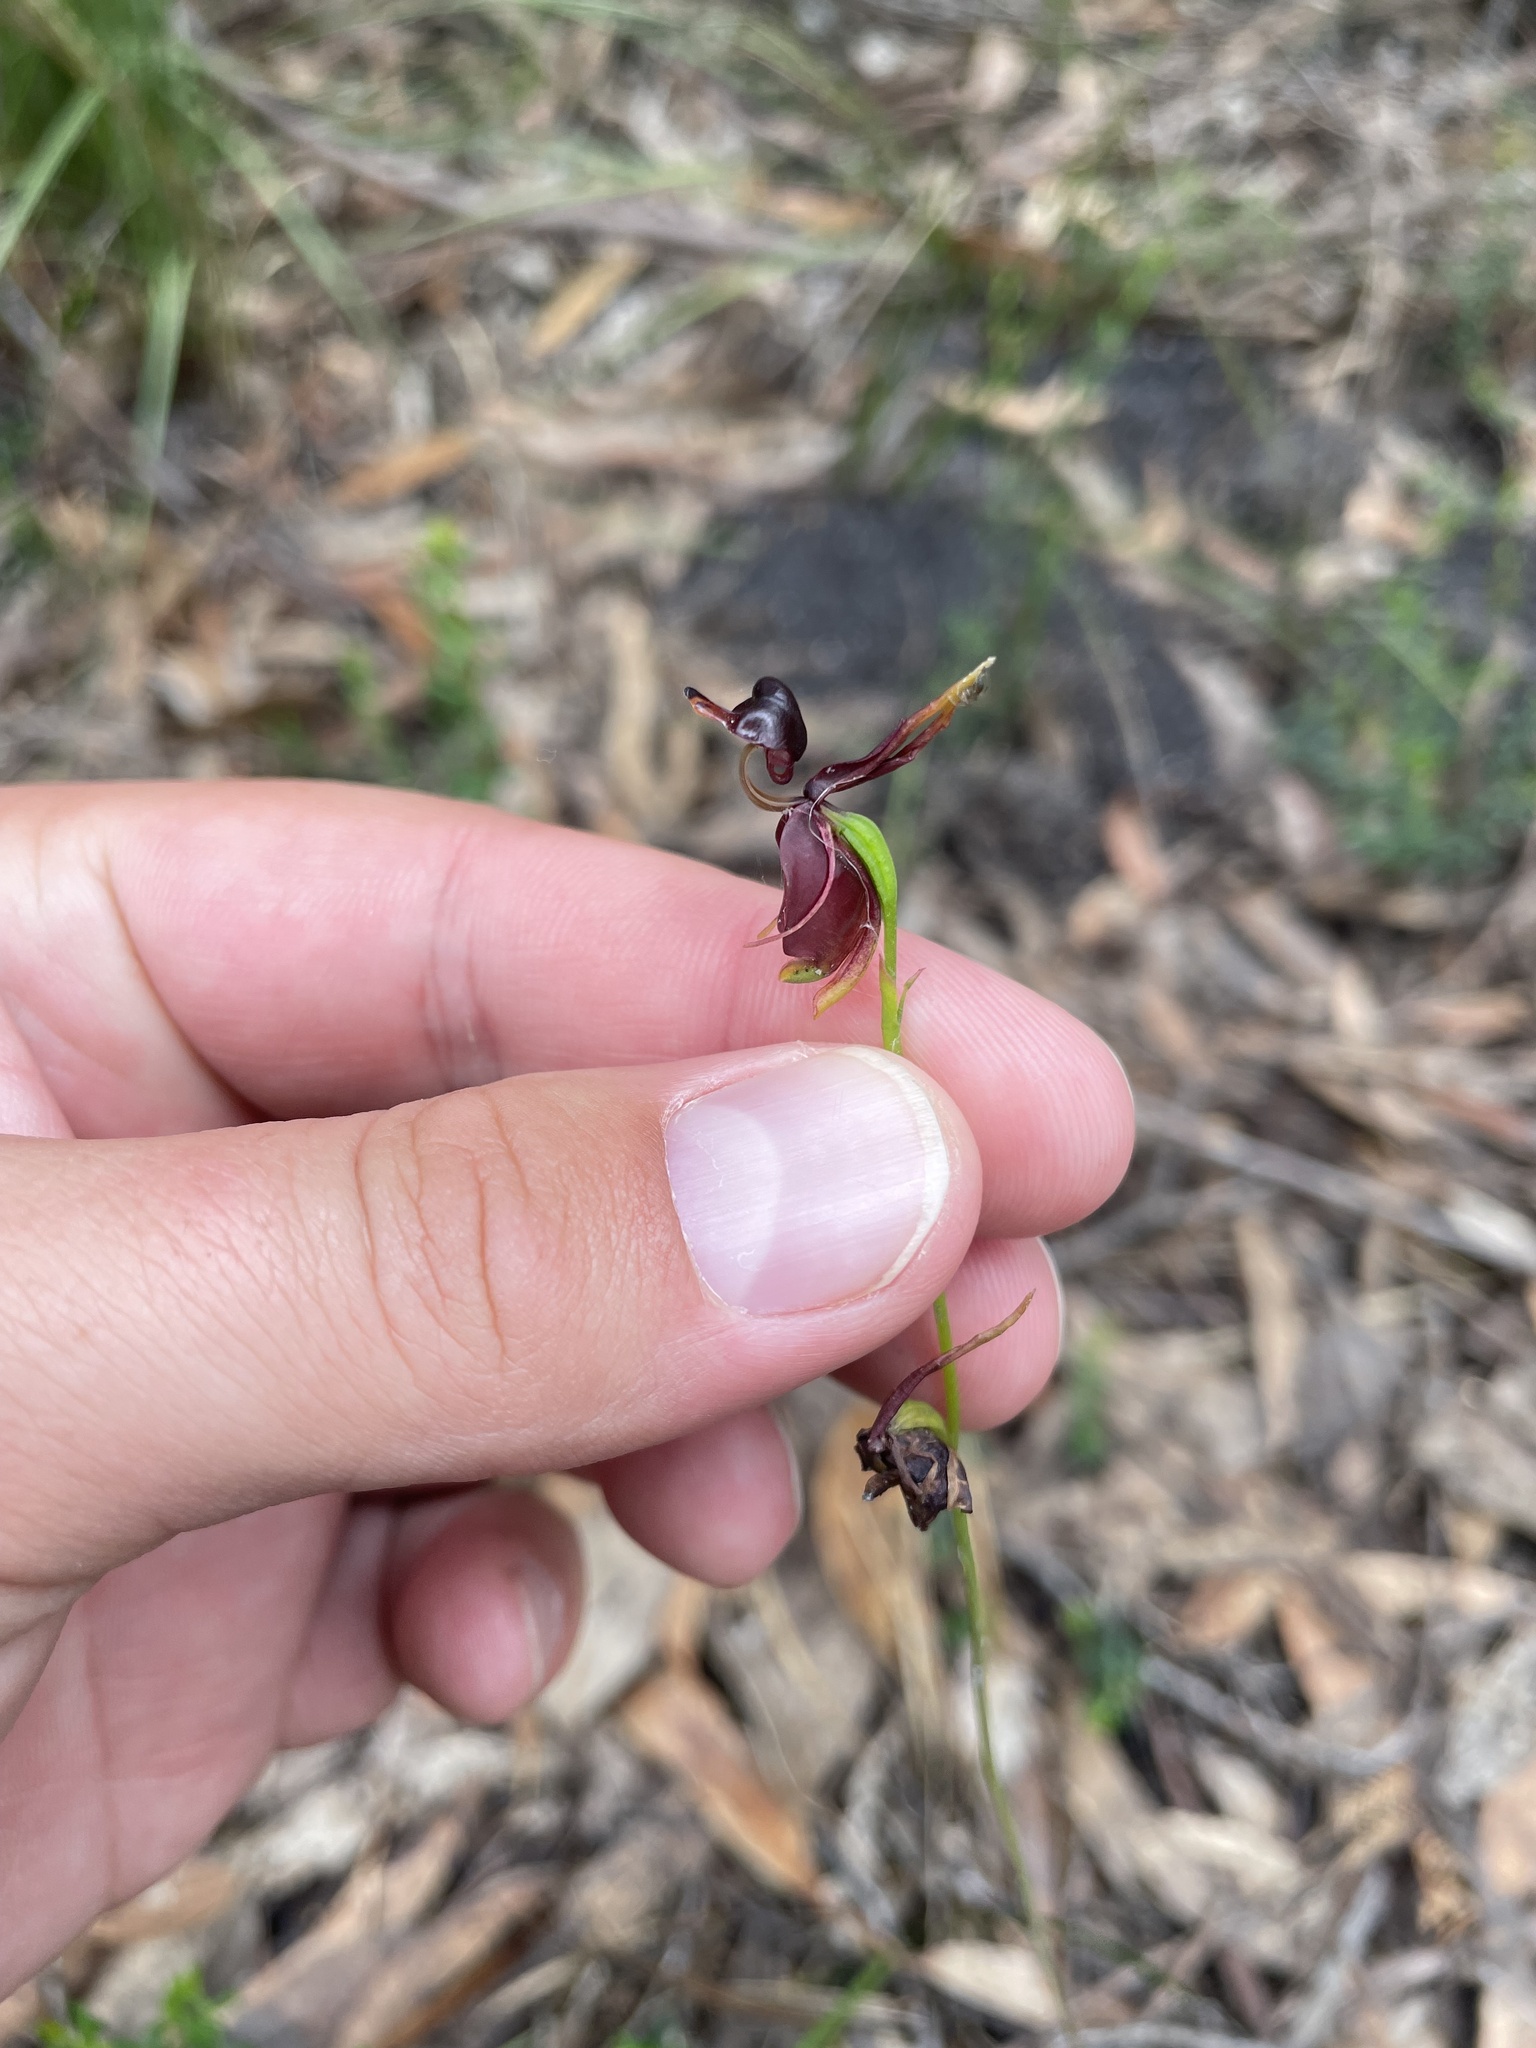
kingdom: Plantae
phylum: Tracheophyta
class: Liliopsida
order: Asparagales
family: Orchidaceae
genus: Caleana
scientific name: Caleana major
